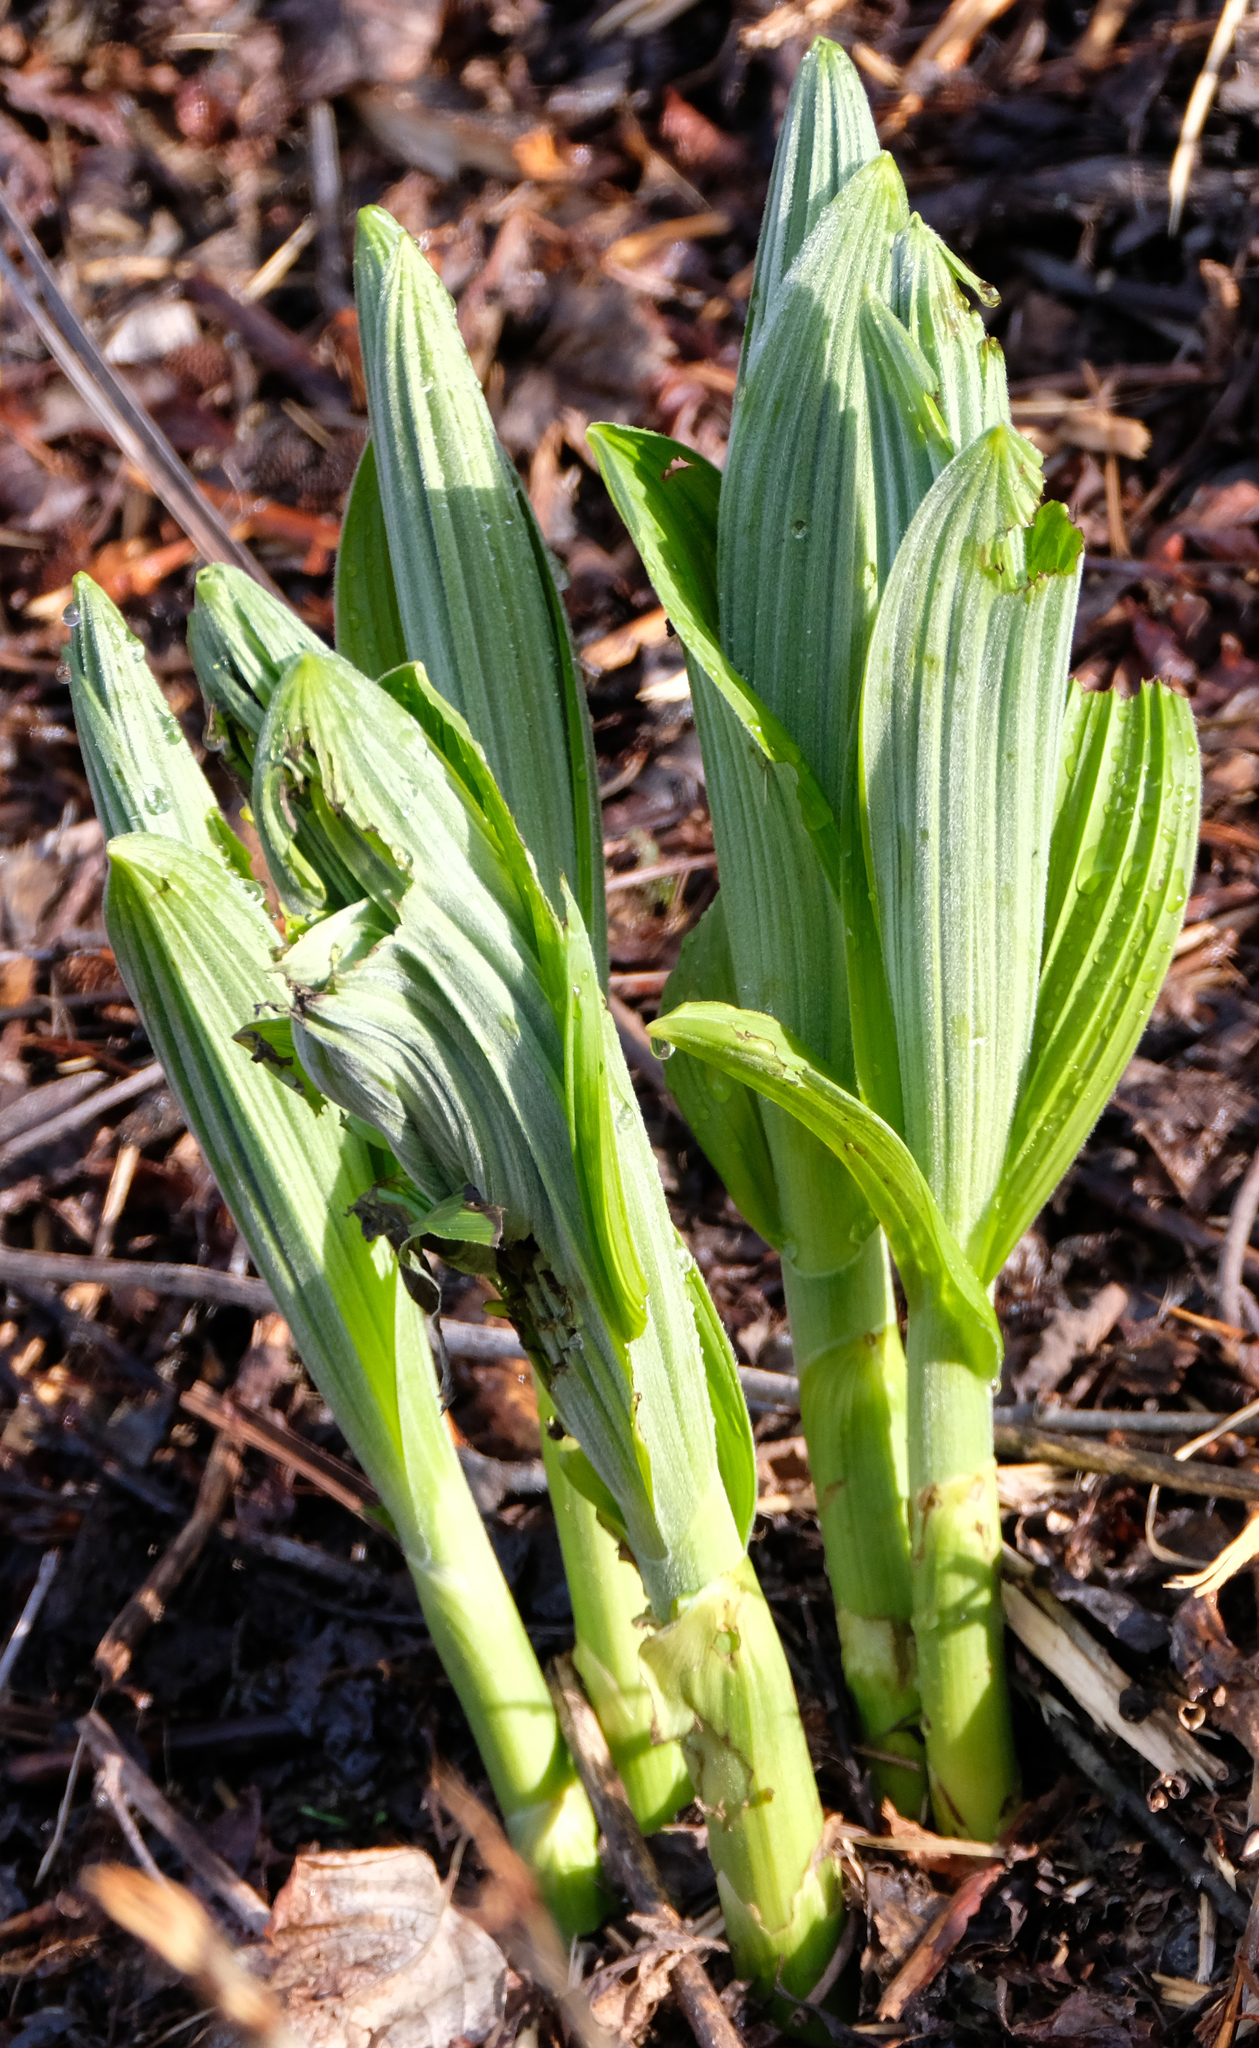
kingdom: Plantae
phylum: Tracheophyta
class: Liliopsida
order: Liliales
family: Melanthiaceae
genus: Veratrum
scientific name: Veratrum viride
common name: American false hellebore
